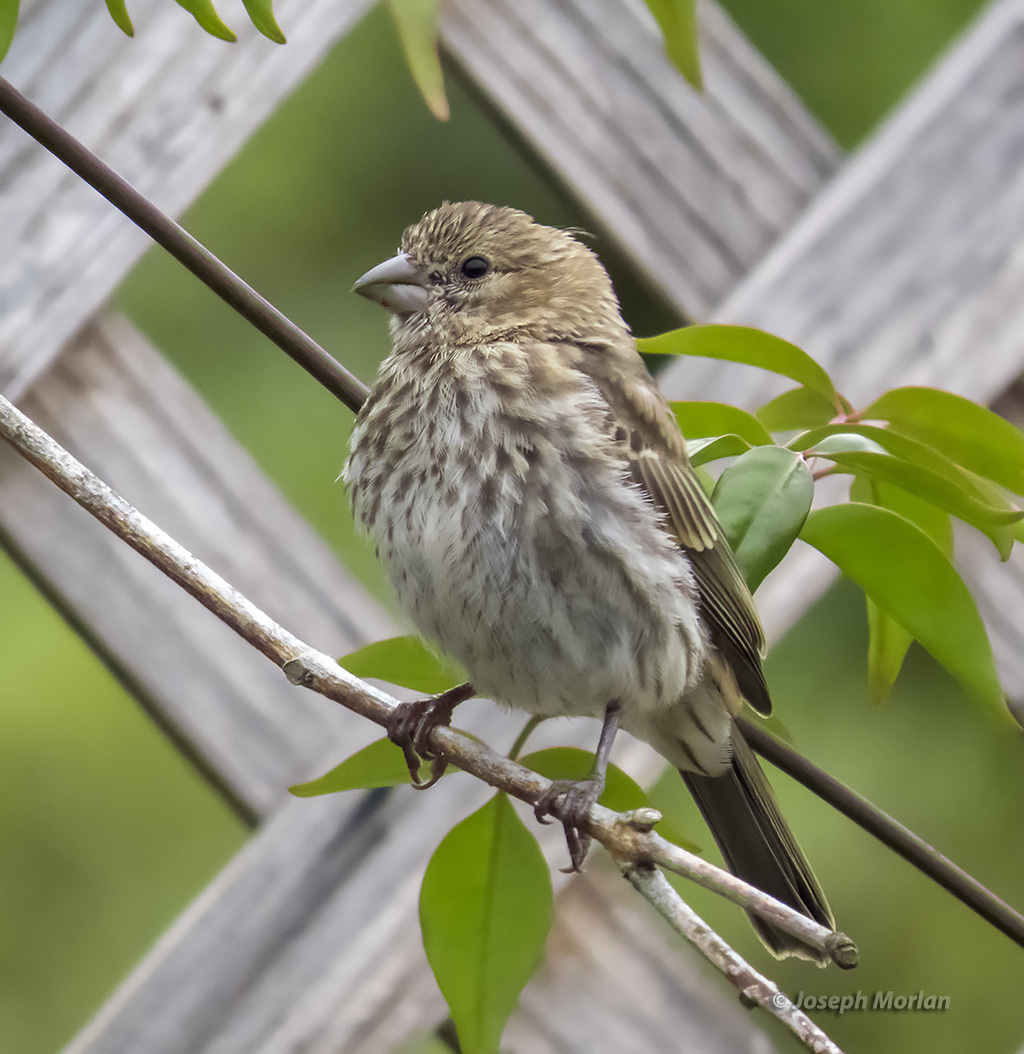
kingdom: Animalia
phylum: Chordata
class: Aves
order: Passeriformes
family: Fringillidae
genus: Haemorhous
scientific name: Haemorhous mexicanus
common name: House finch
